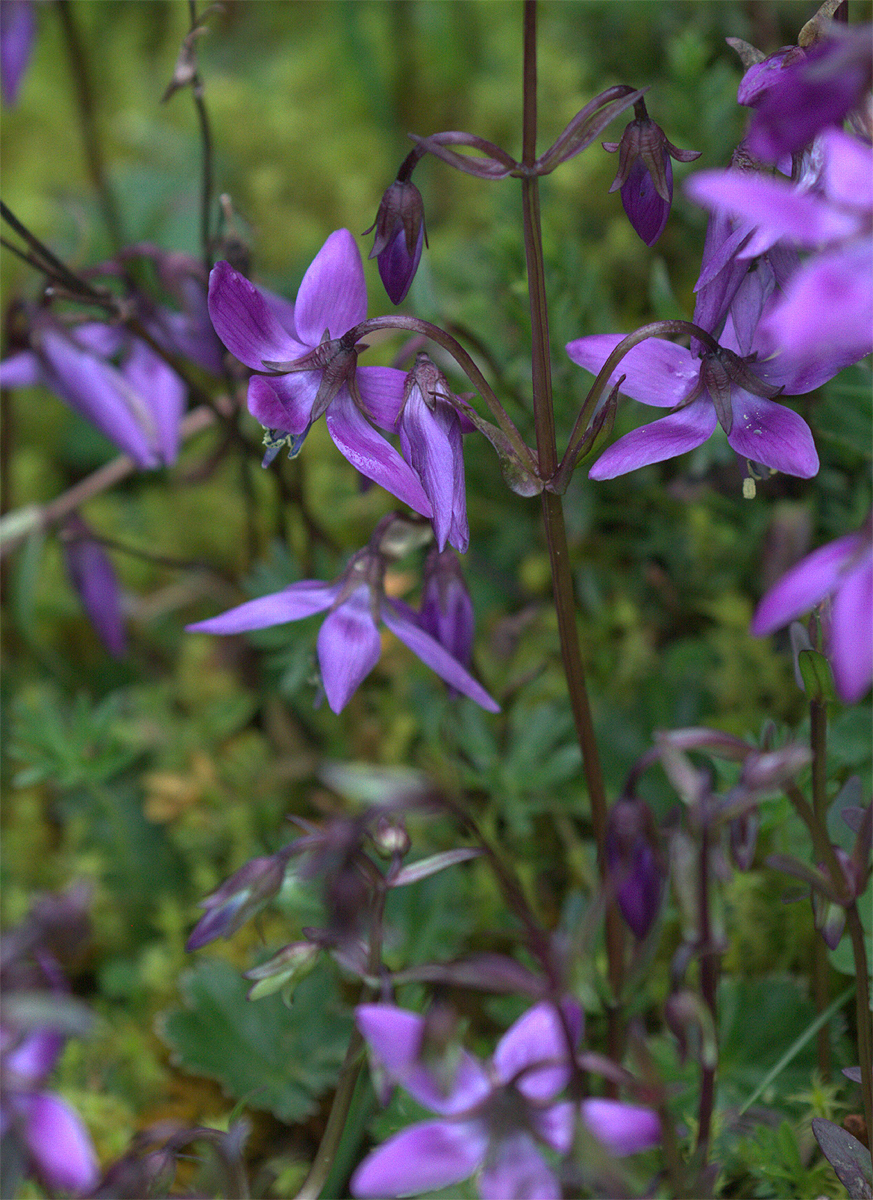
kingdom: Plantae
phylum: Tracheophyta
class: Magnoliopsida
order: Gentianales
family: Gentianaceae
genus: Gentianella
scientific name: Gentianella rapunculoides
